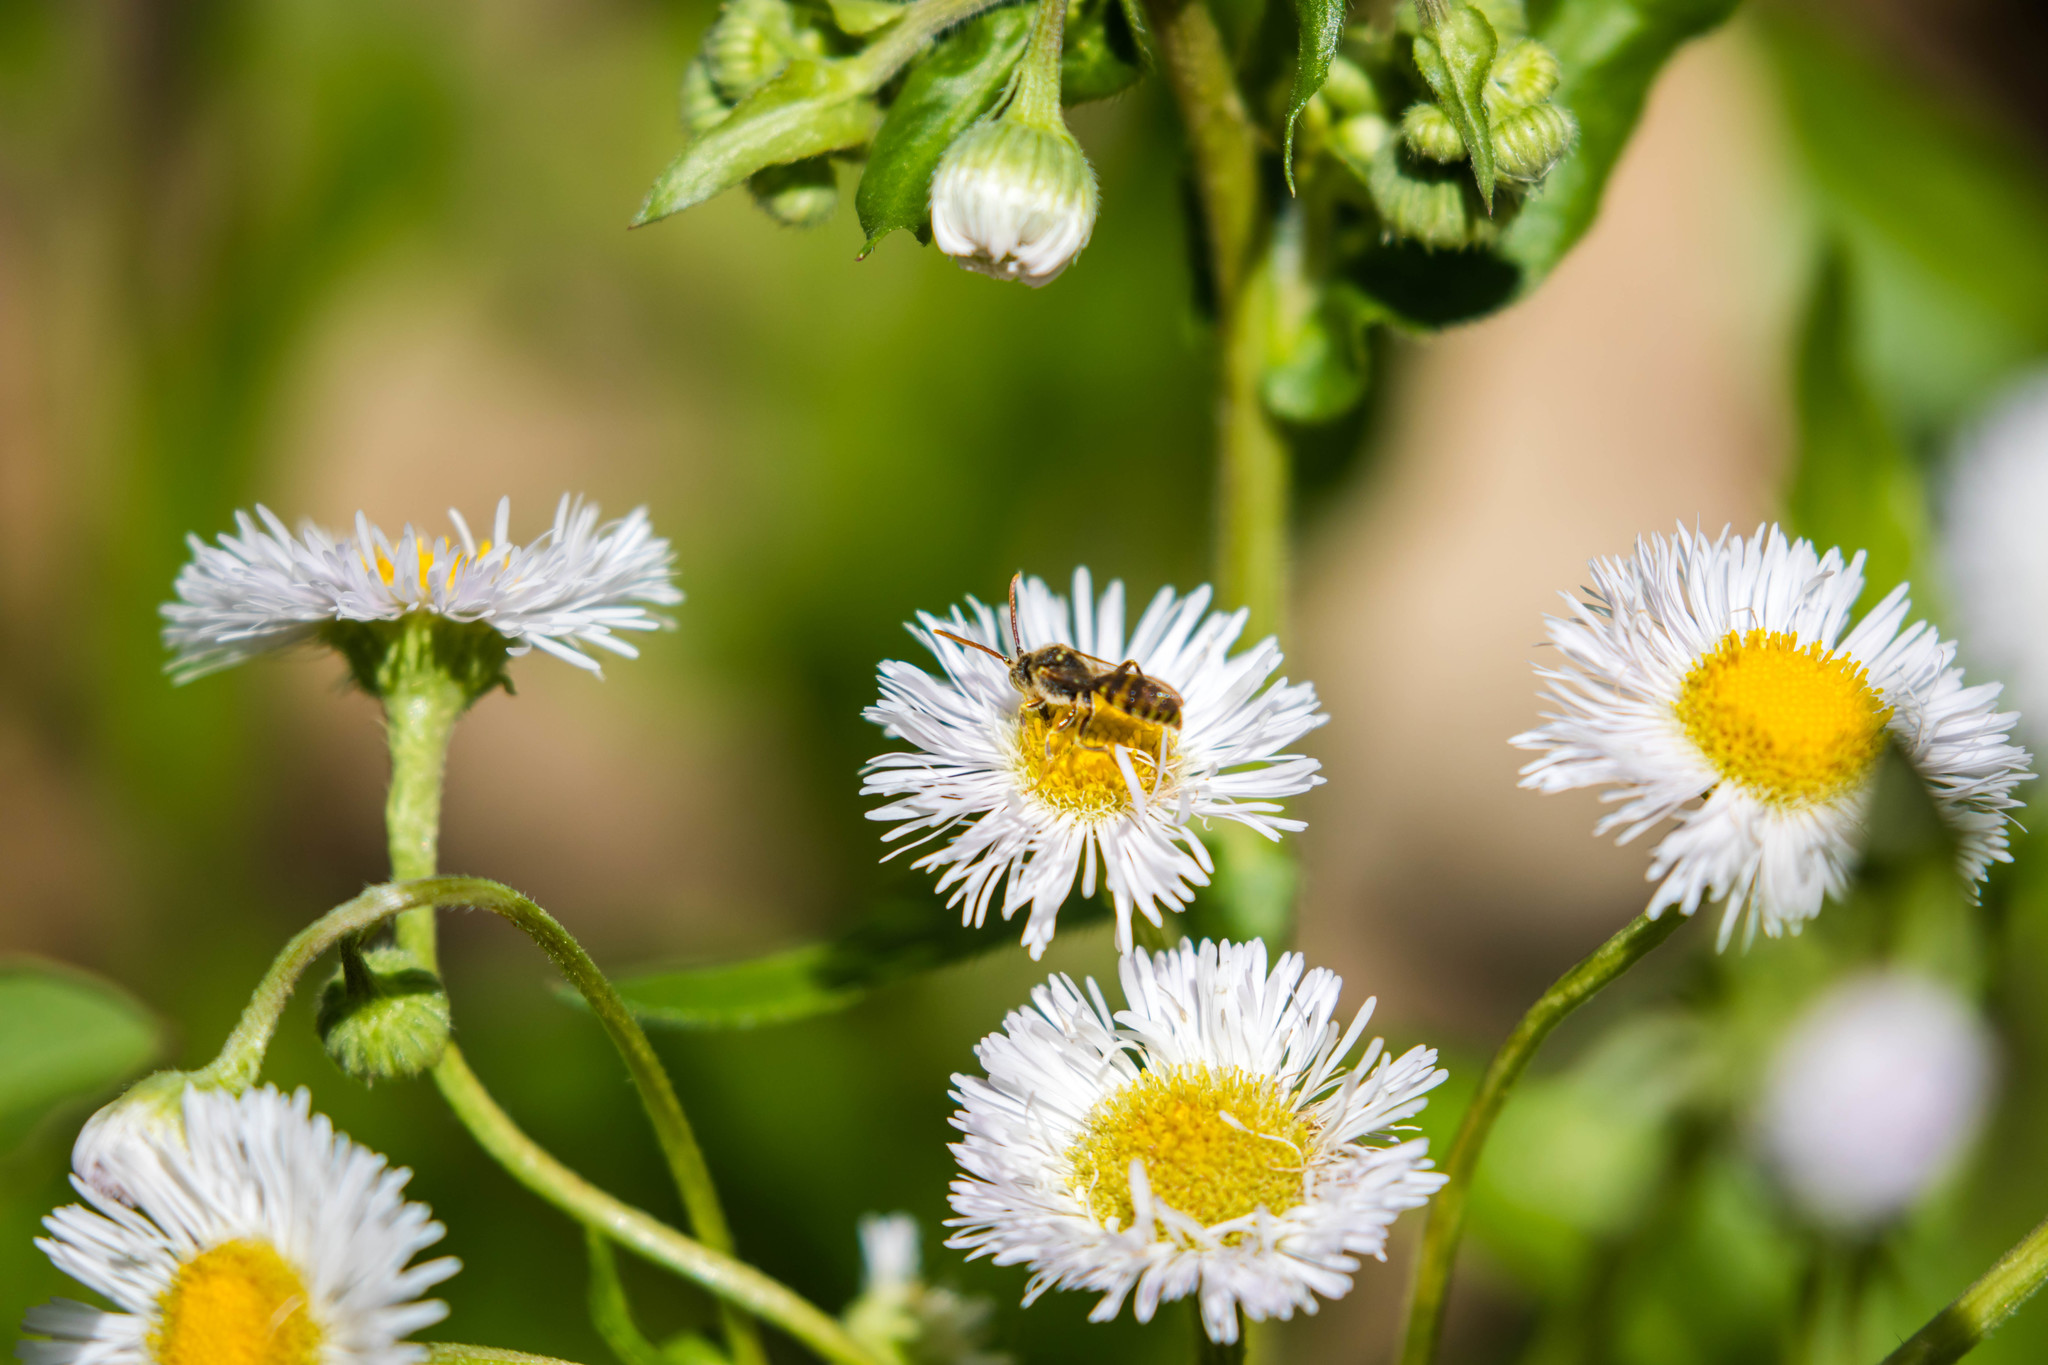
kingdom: Animalia
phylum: Arthropoda
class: Insecta
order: Hymenoptera
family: Apidae
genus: Nomada
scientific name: Nomada luteoloides
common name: Black-and-yellow nomad bee
